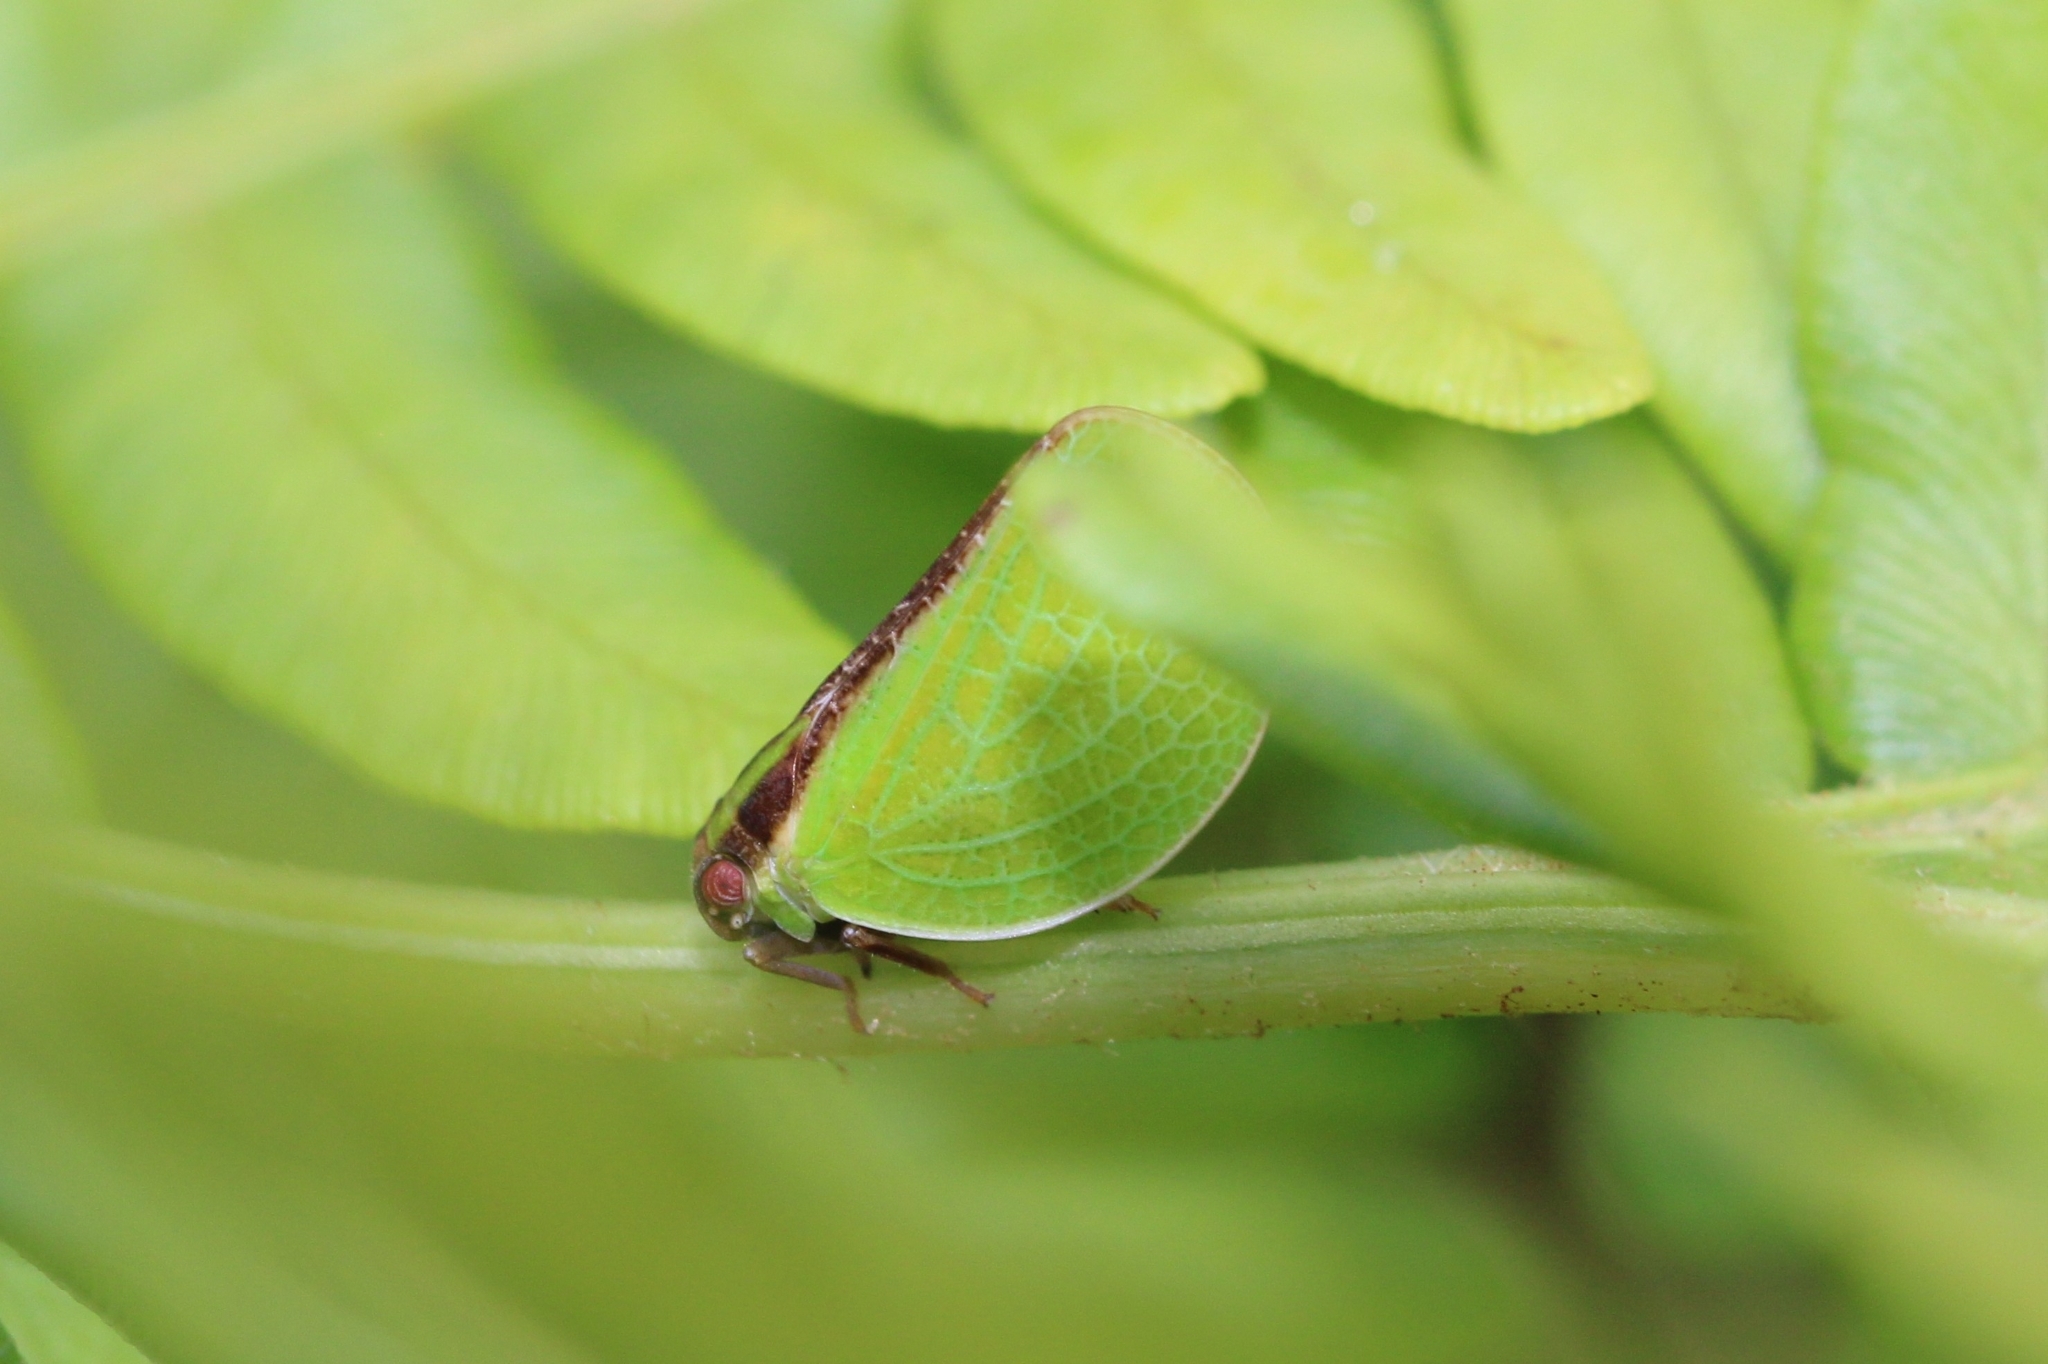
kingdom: Animalia
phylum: Arthropoda
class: Insecta
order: Hemiptera
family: Acanaloniidae
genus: Acanalonia
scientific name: Acanalonia bivittata
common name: Two-striped planthopper
